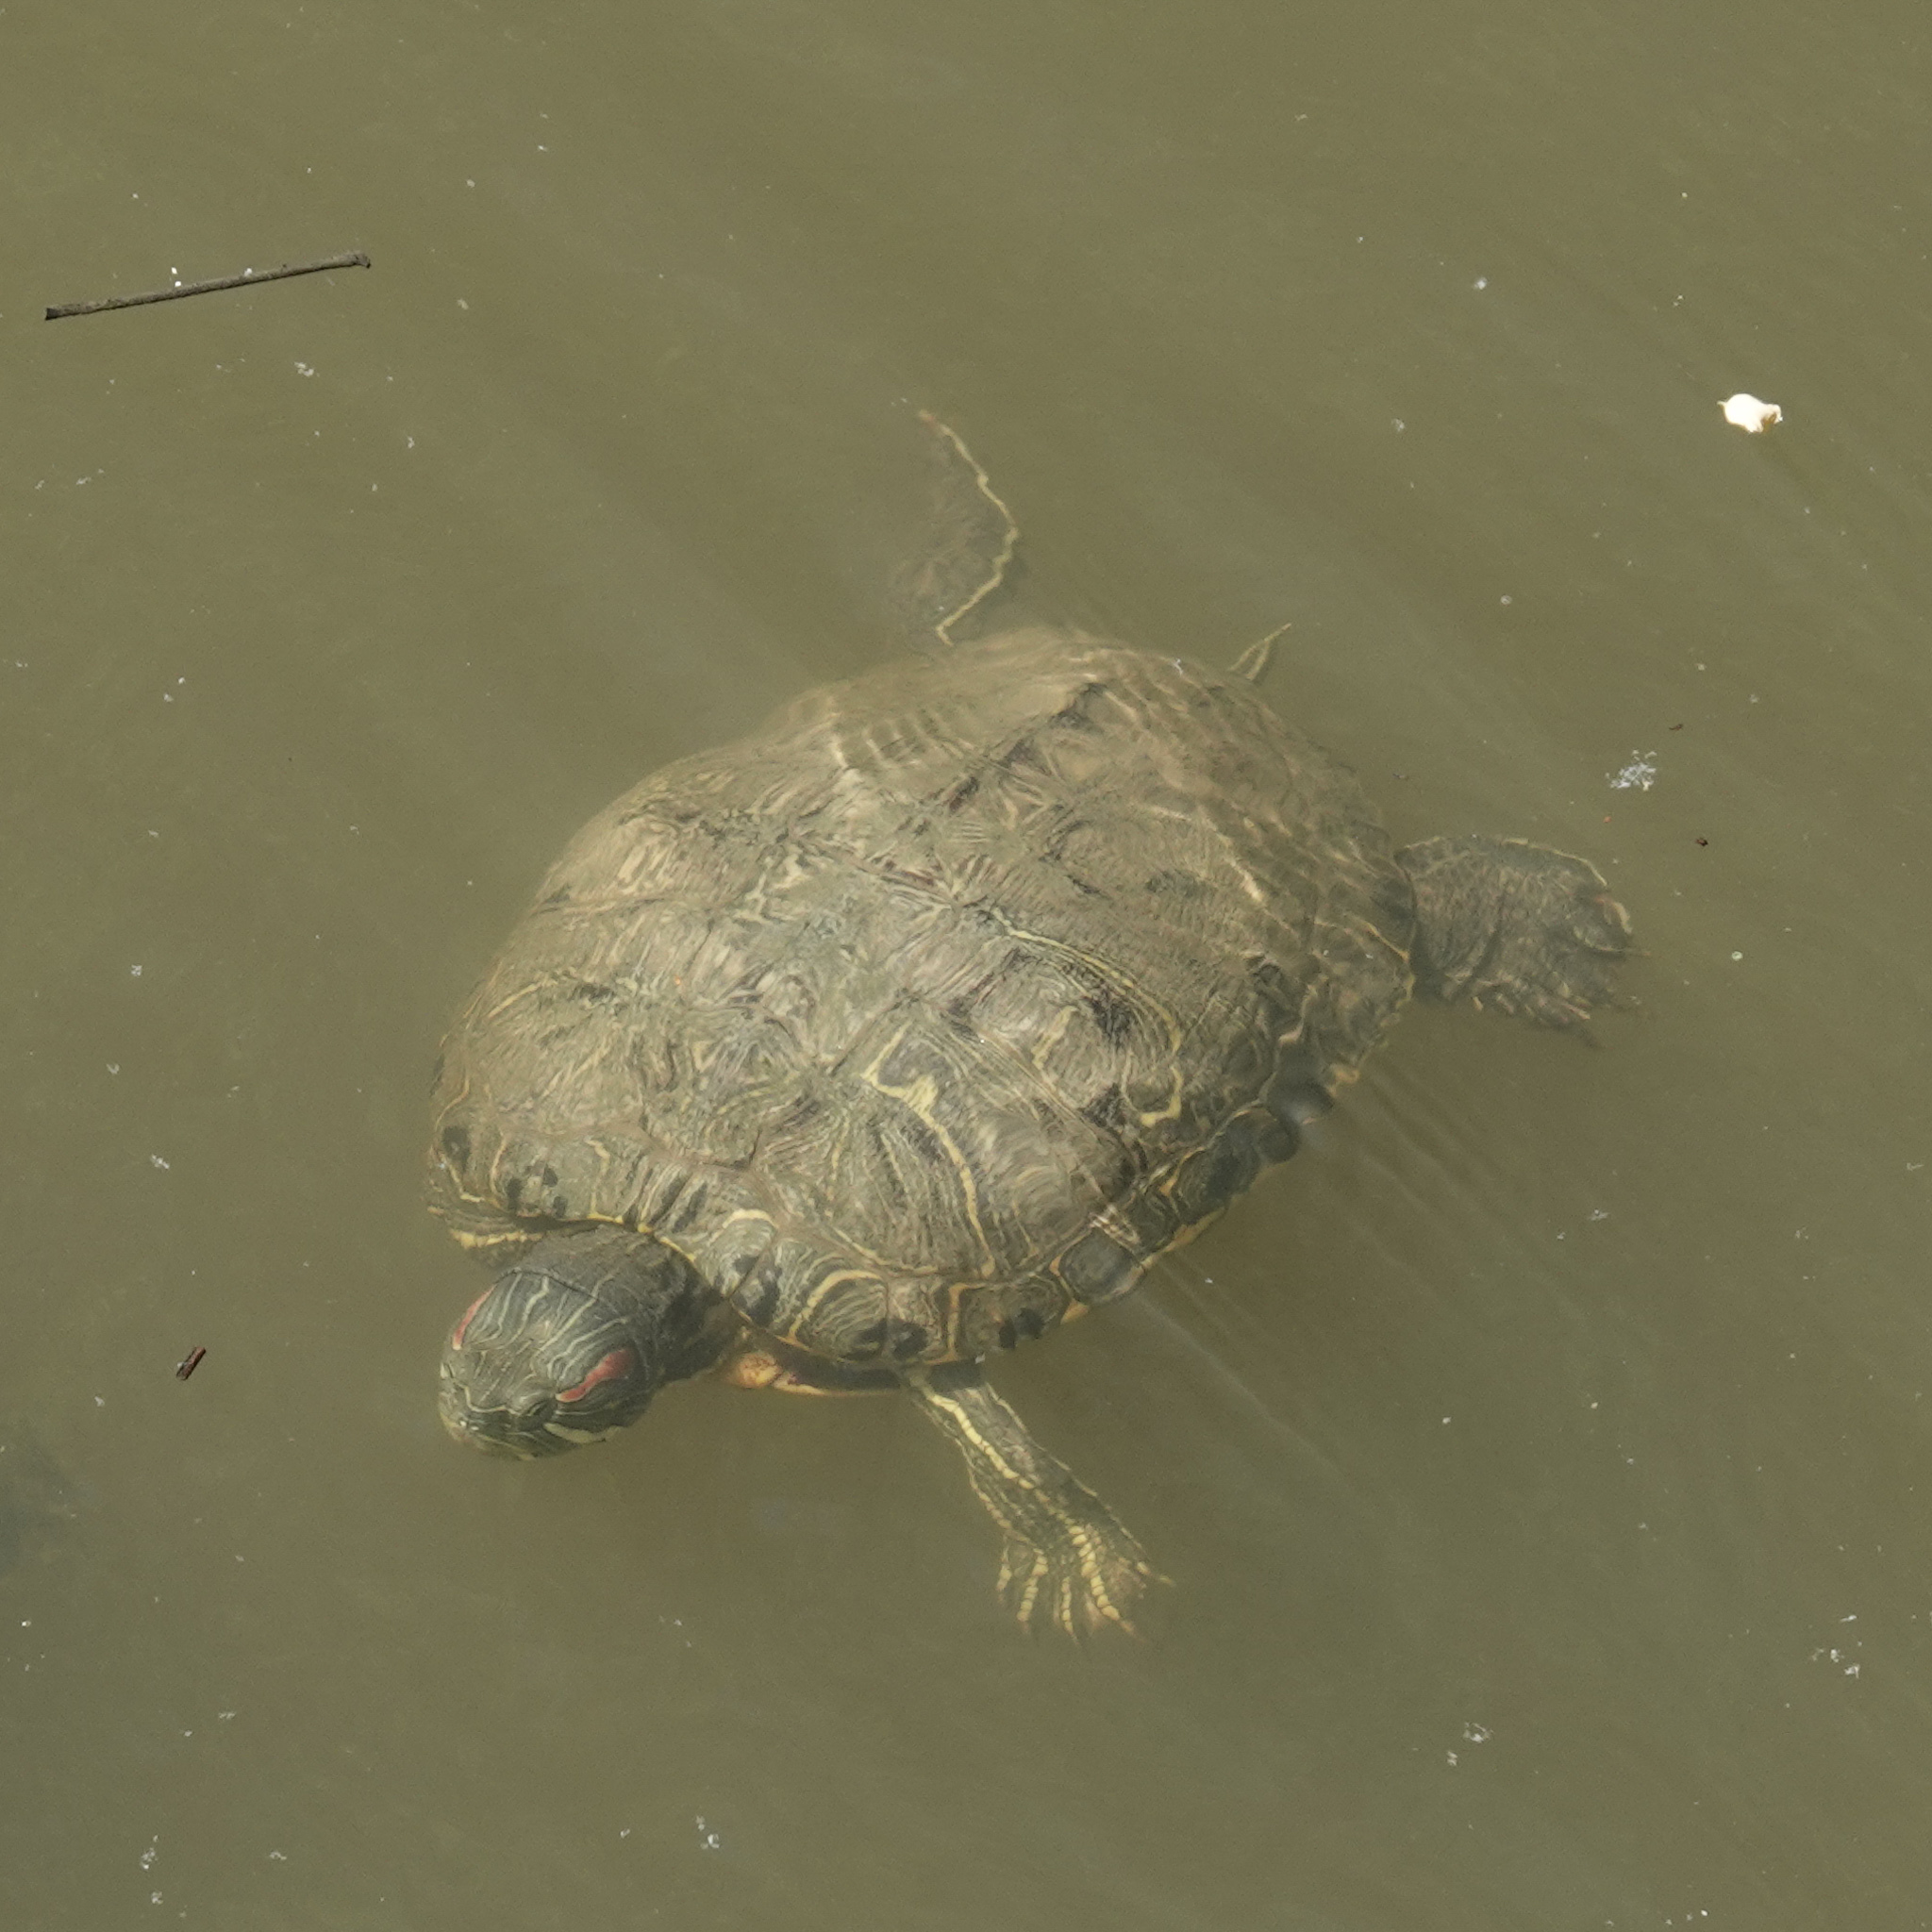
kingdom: Animalia
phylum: Chordata
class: Testudines
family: Emydidae
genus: Trachemys
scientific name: Trachemys scripta
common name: Slider
